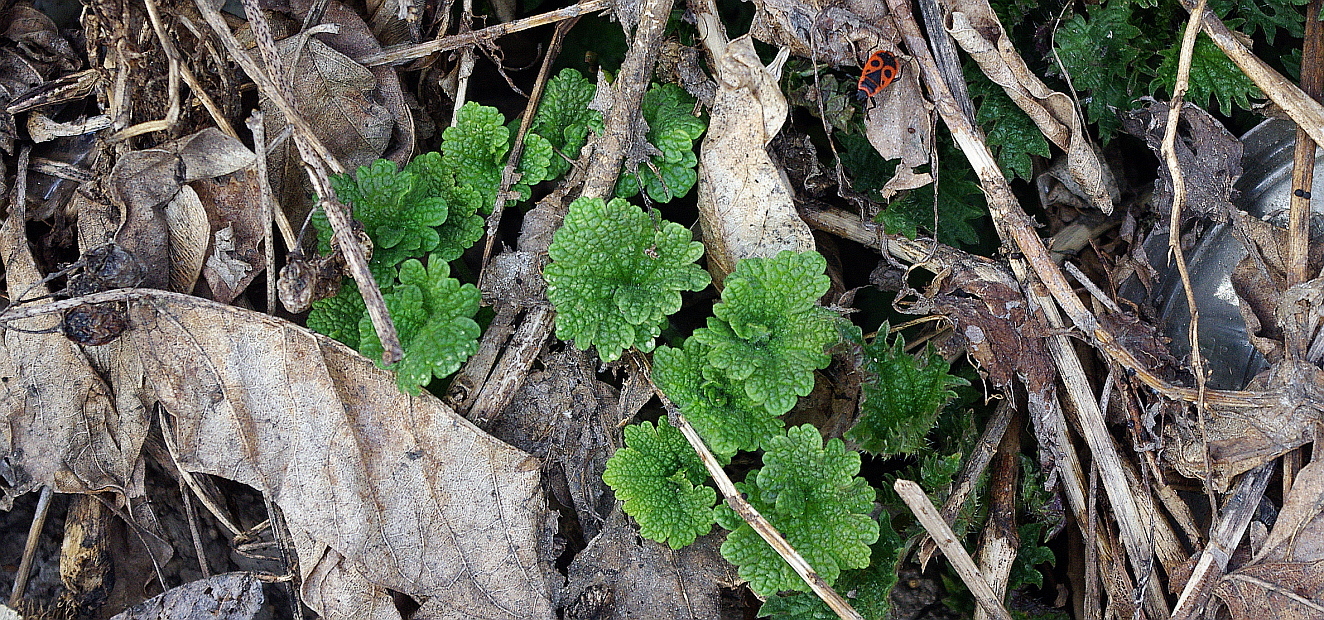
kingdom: Plantae
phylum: Tracheophyta
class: Magnoliopsida
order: Lamiales
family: Lamiaceae
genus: Leonurus
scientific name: Leonurus quinquelobatus
